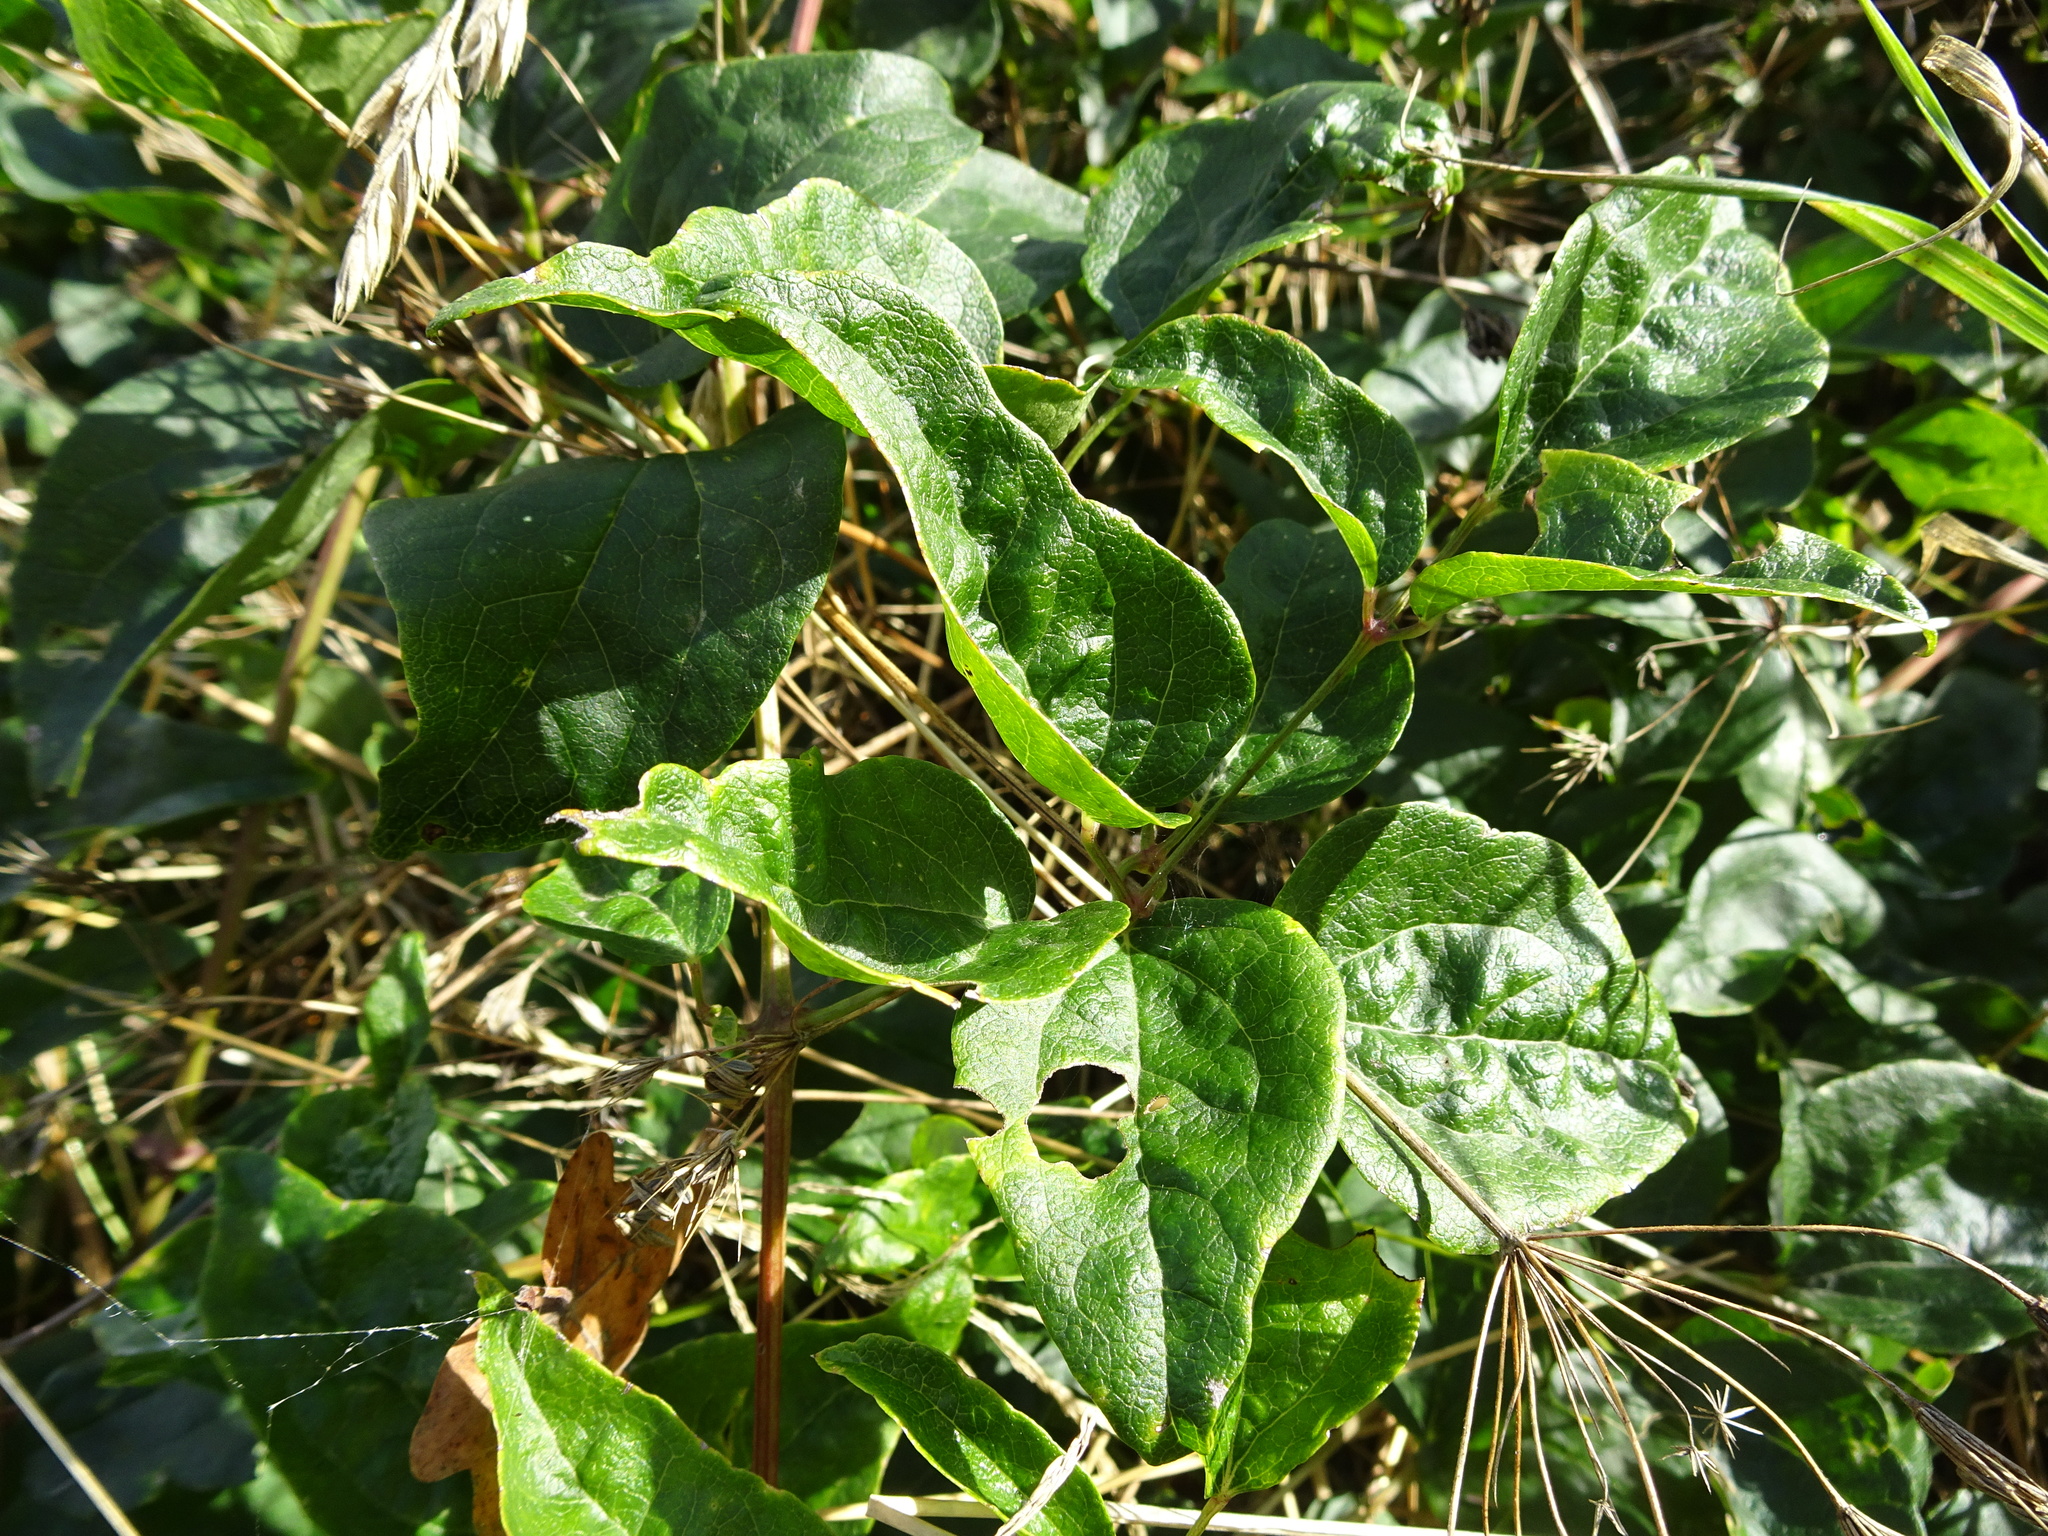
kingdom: Plantae
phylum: Tracheophyta
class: Magnoliopsida
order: Ranunculales
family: Ranunculaceae
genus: Clematis
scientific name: Clematis vitalba
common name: Evergreen clematis
